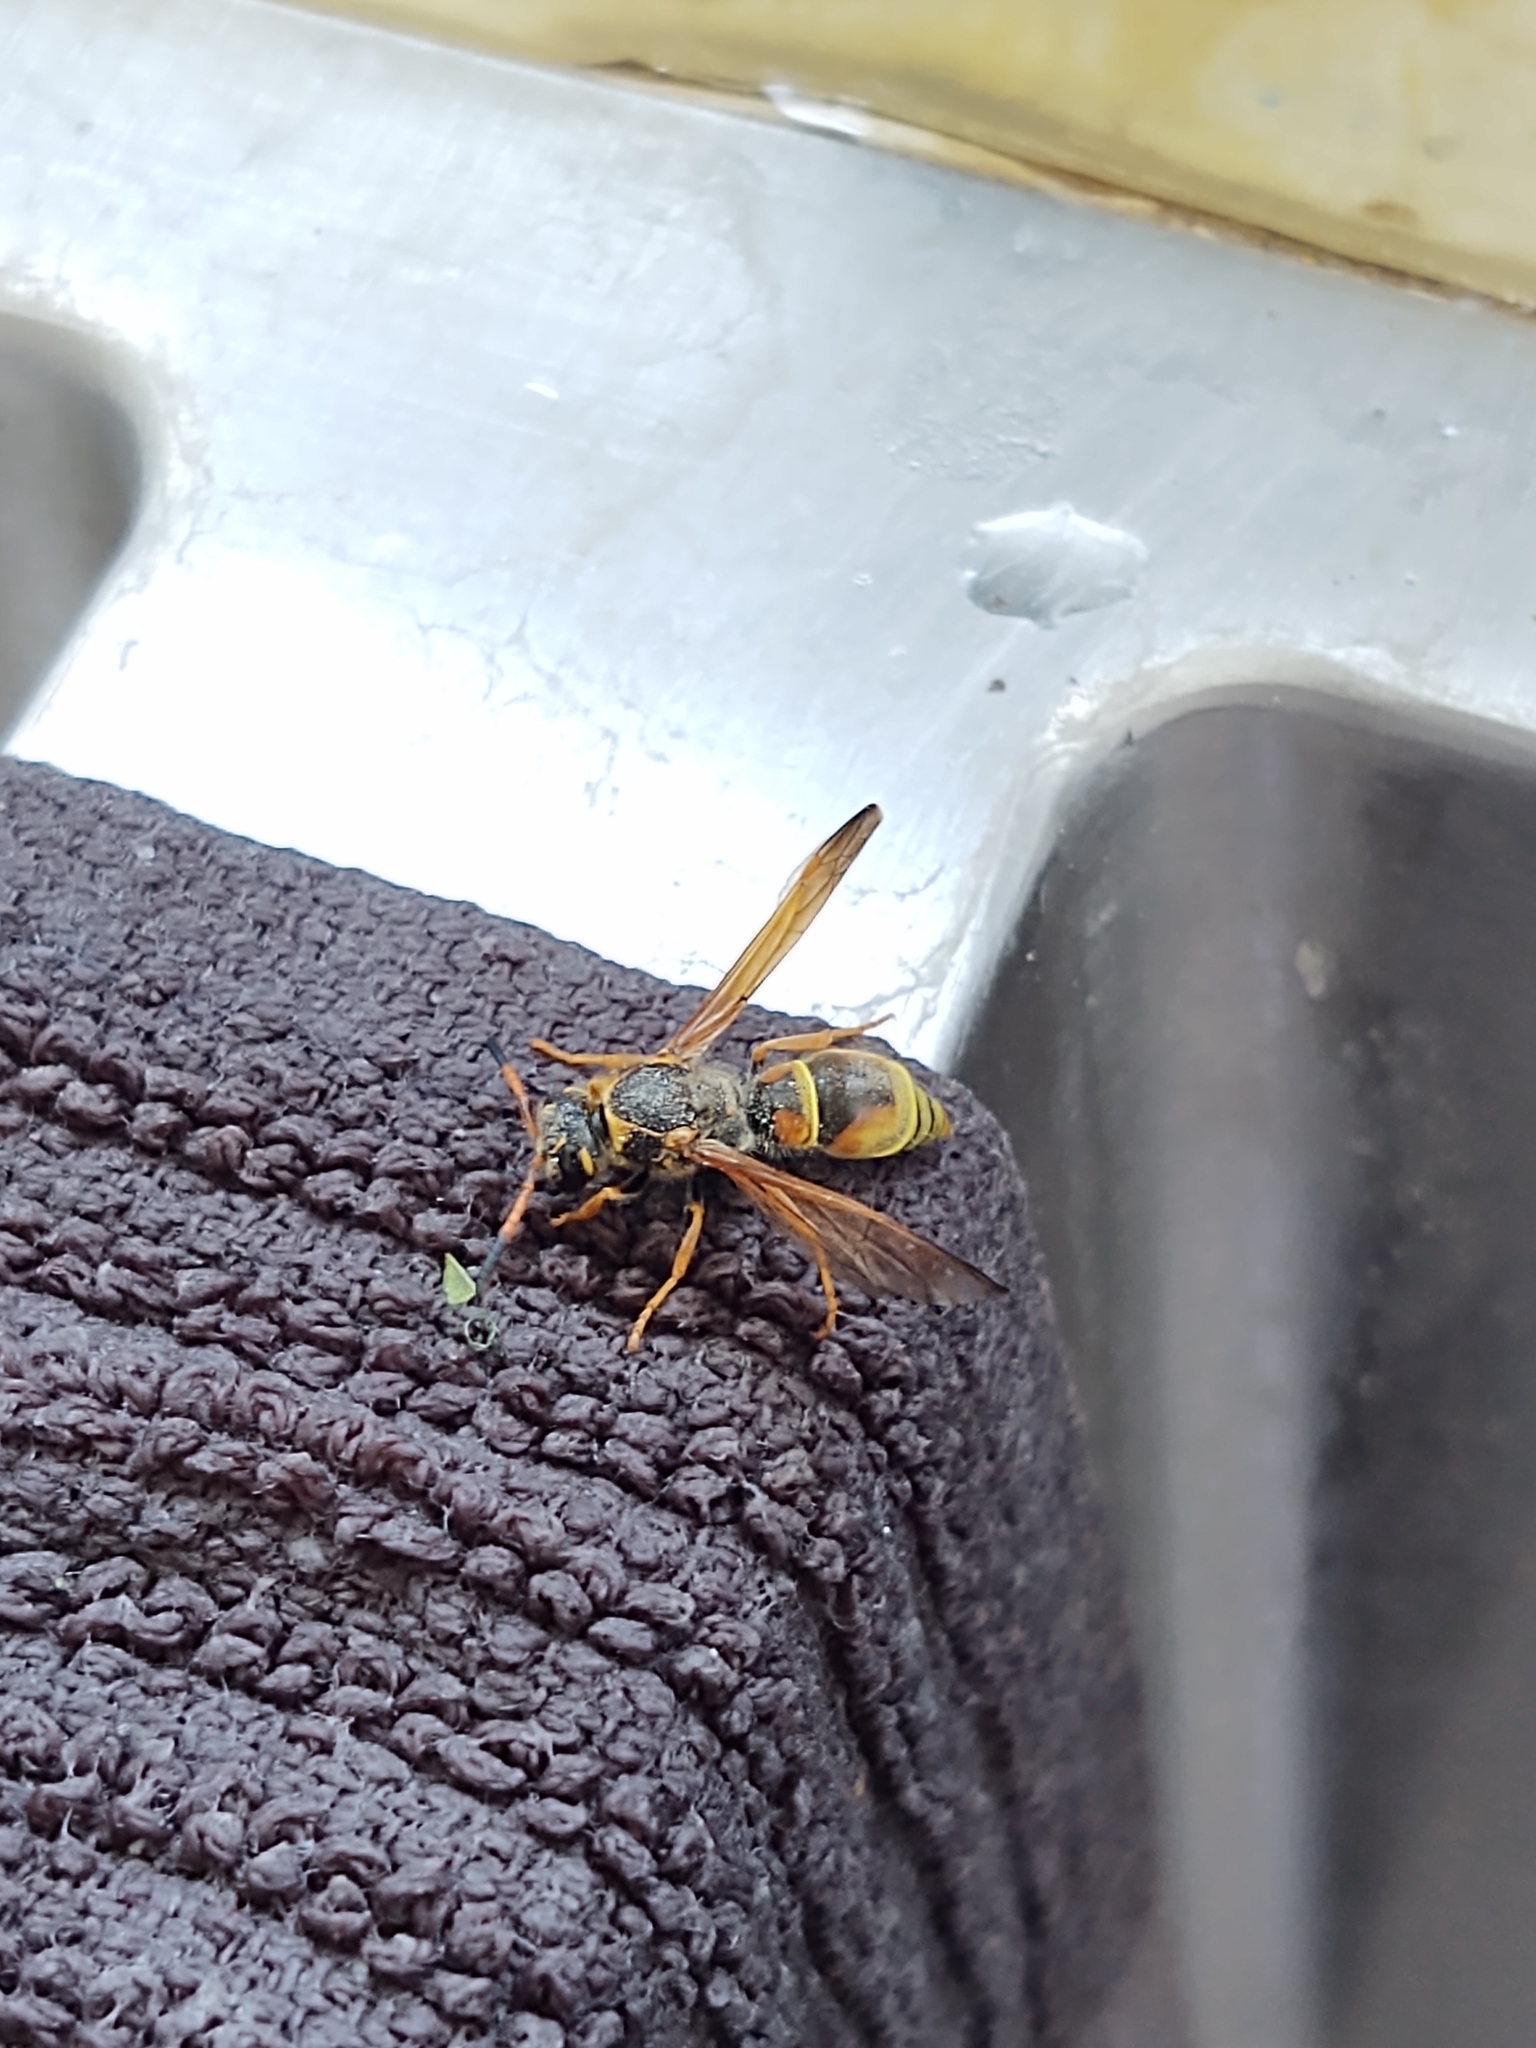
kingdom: Animalia
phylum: Arthropoda
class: Insecta
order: Hymenoptera
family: Vespidae
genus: Ancistrocerus
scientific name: Ancistrocerus
